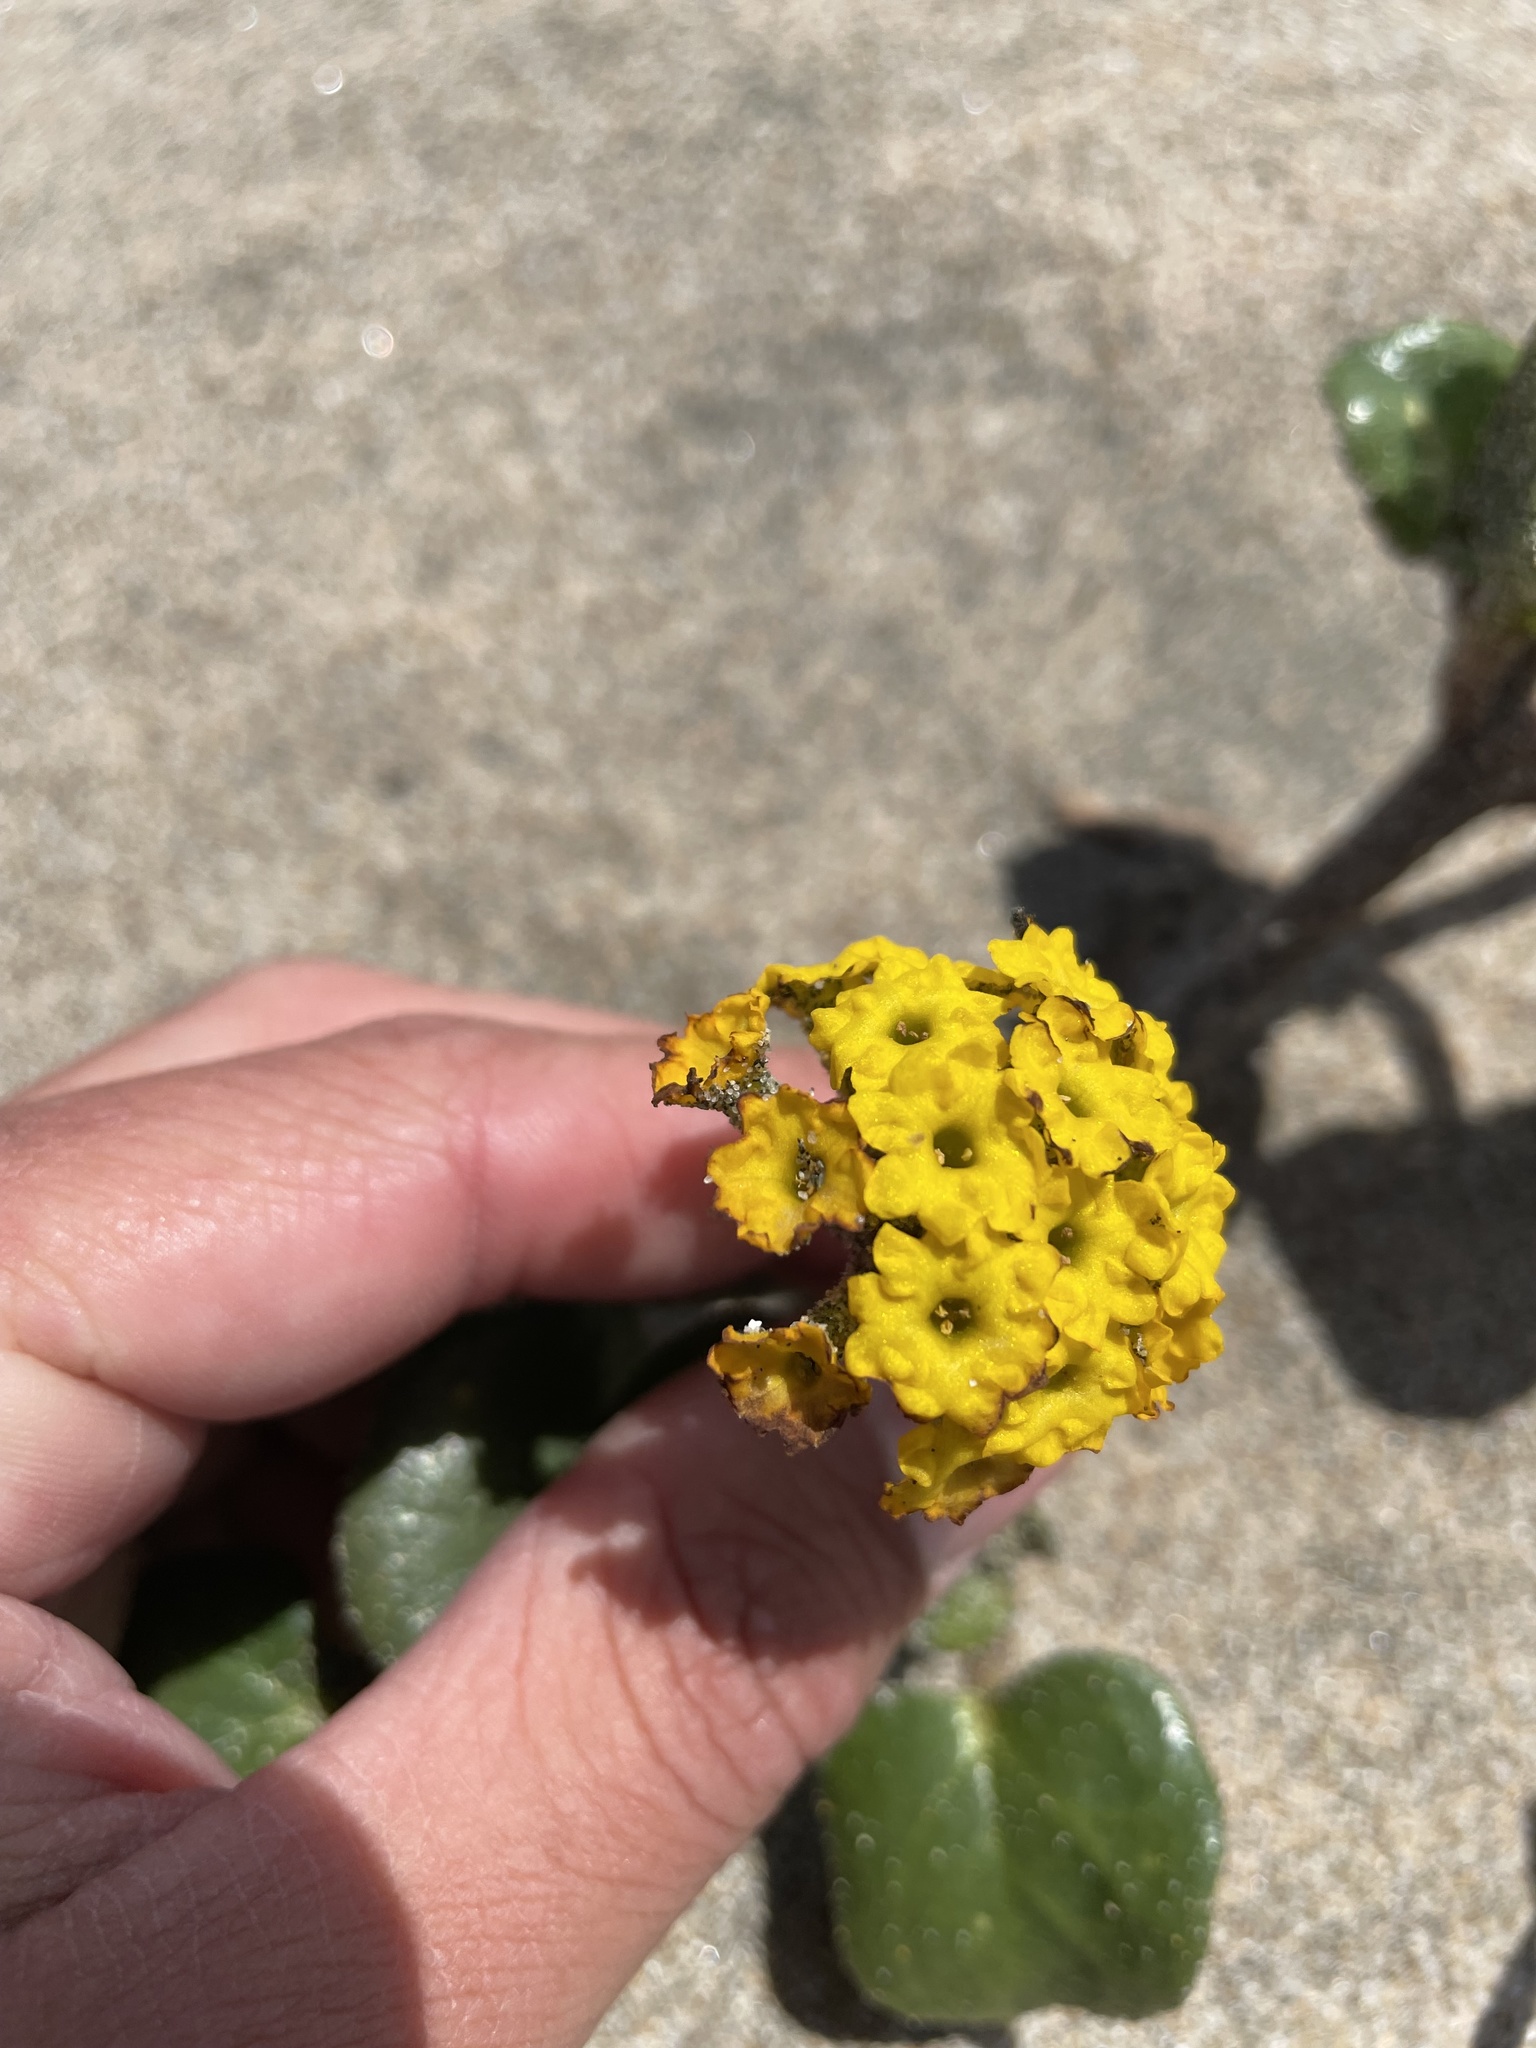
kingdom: Plantae
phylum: Tracheophyta
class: Magnoliopsida
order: Caryophyllales
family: Nyctaginaceae
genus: Abronia
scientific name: Abronia latifolia
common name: Yellow sand-verbena
